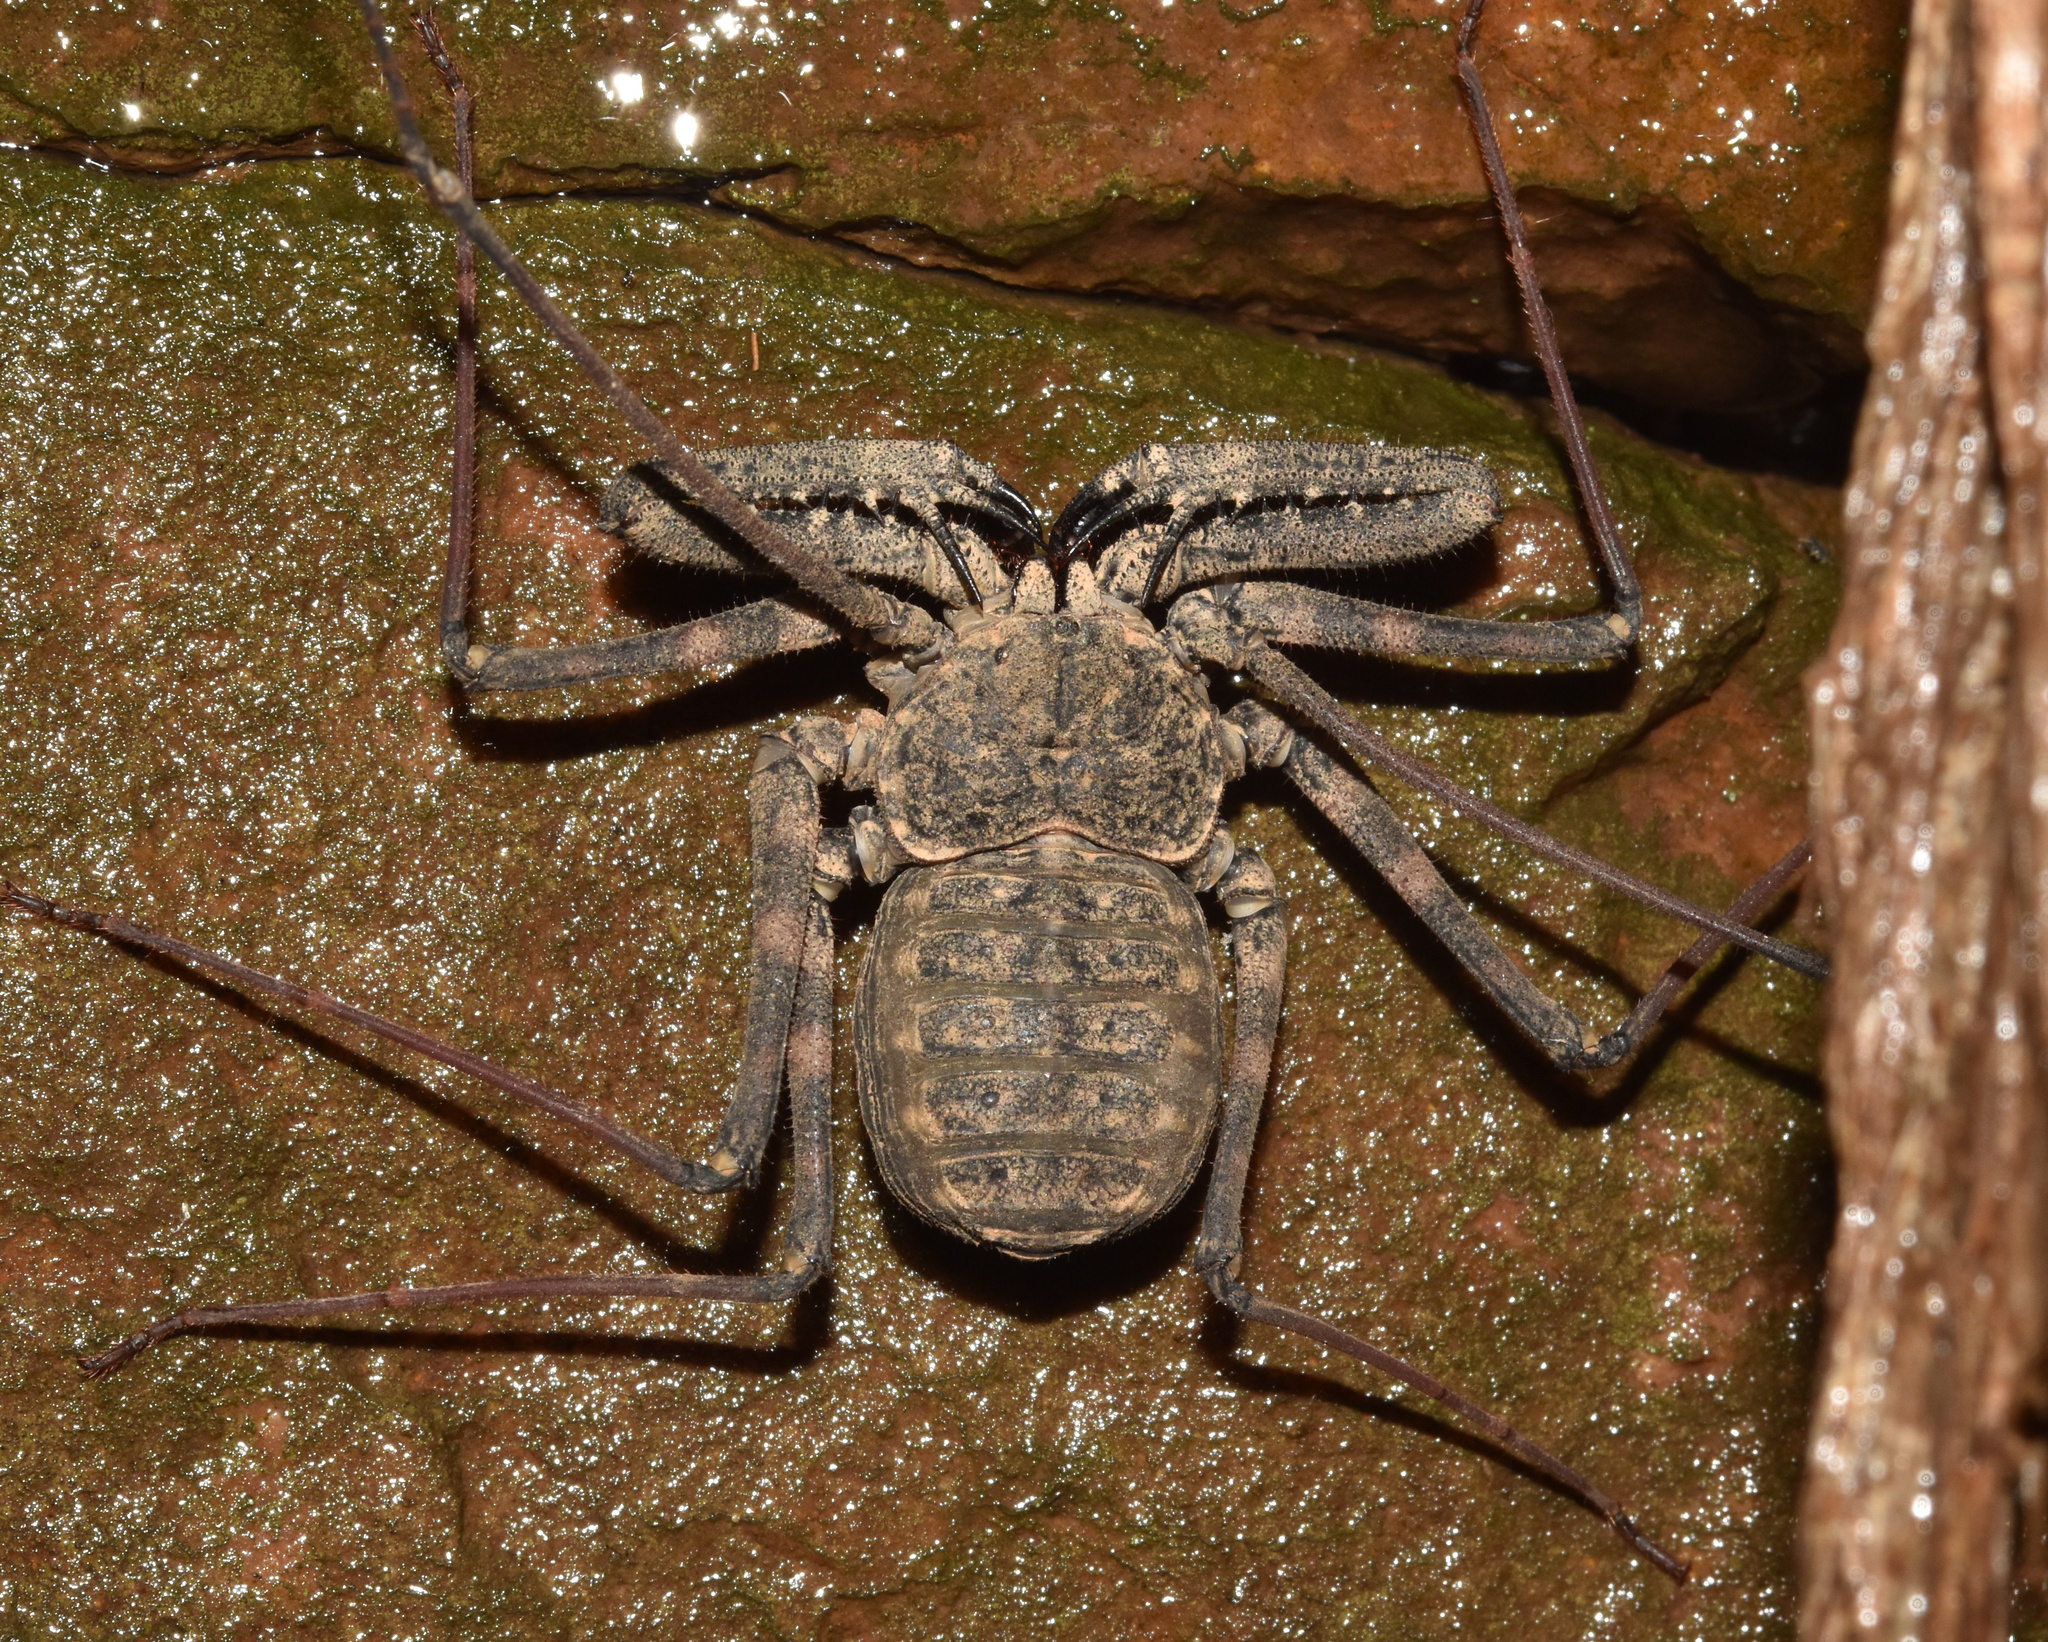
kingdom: Animalia
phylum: Arthropoda
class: Arachnida
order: Amblypygi
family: Phrynichidae
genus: Damon
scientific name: Damon annulatipes
